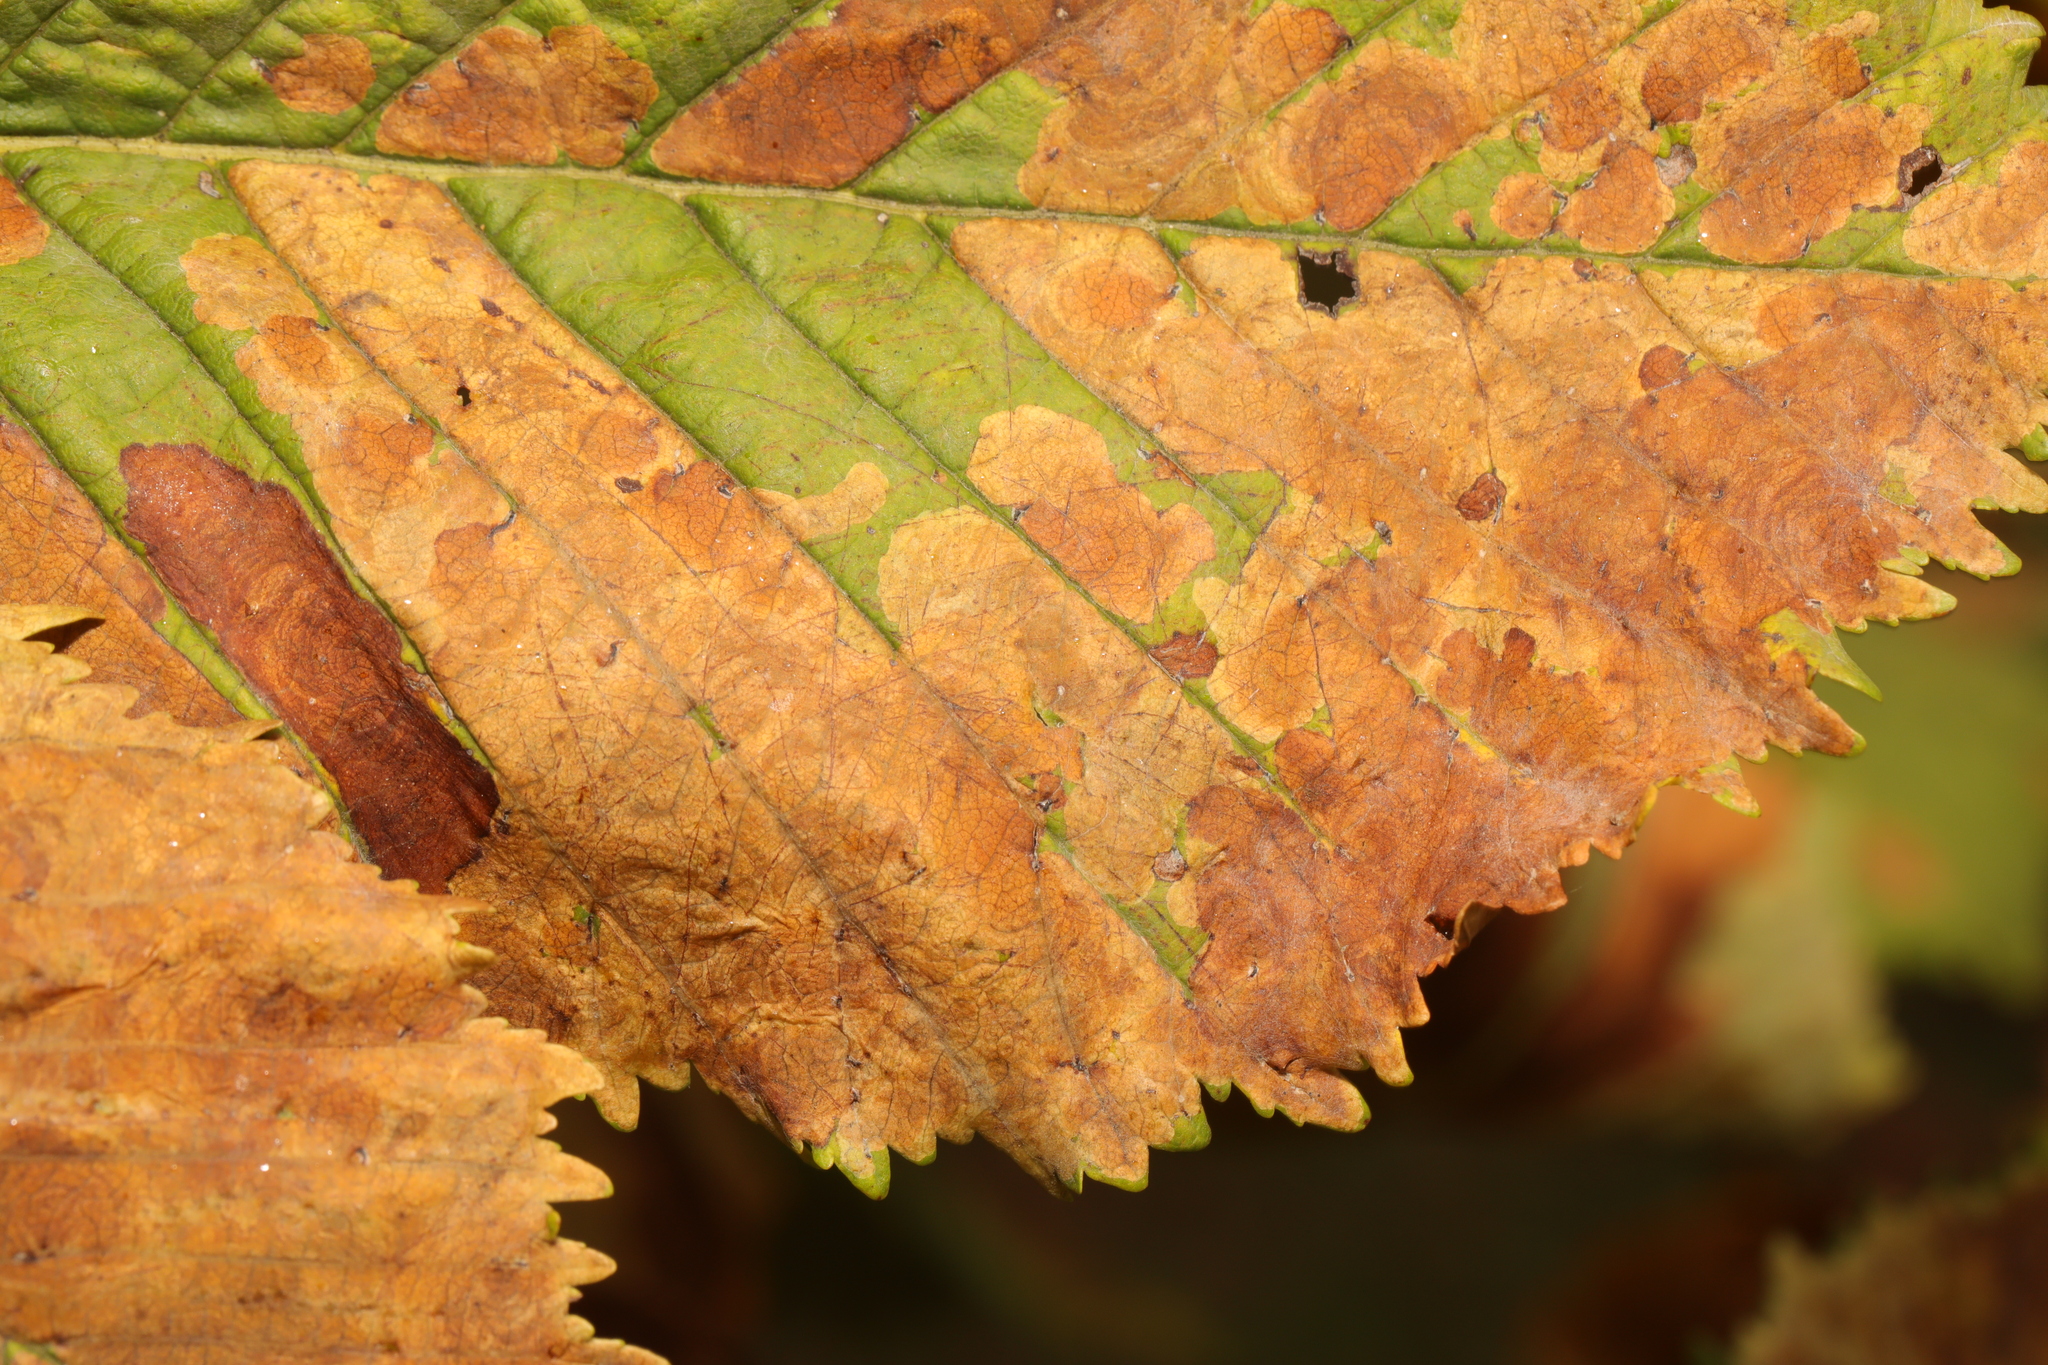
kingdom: Animalia
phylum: Arthropoda
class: Insecta
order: Lepidoptera
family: Gracillariidae
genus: Cameraria
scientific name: Cameraria ohridella
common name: Horse-chestnut leaf-miner
